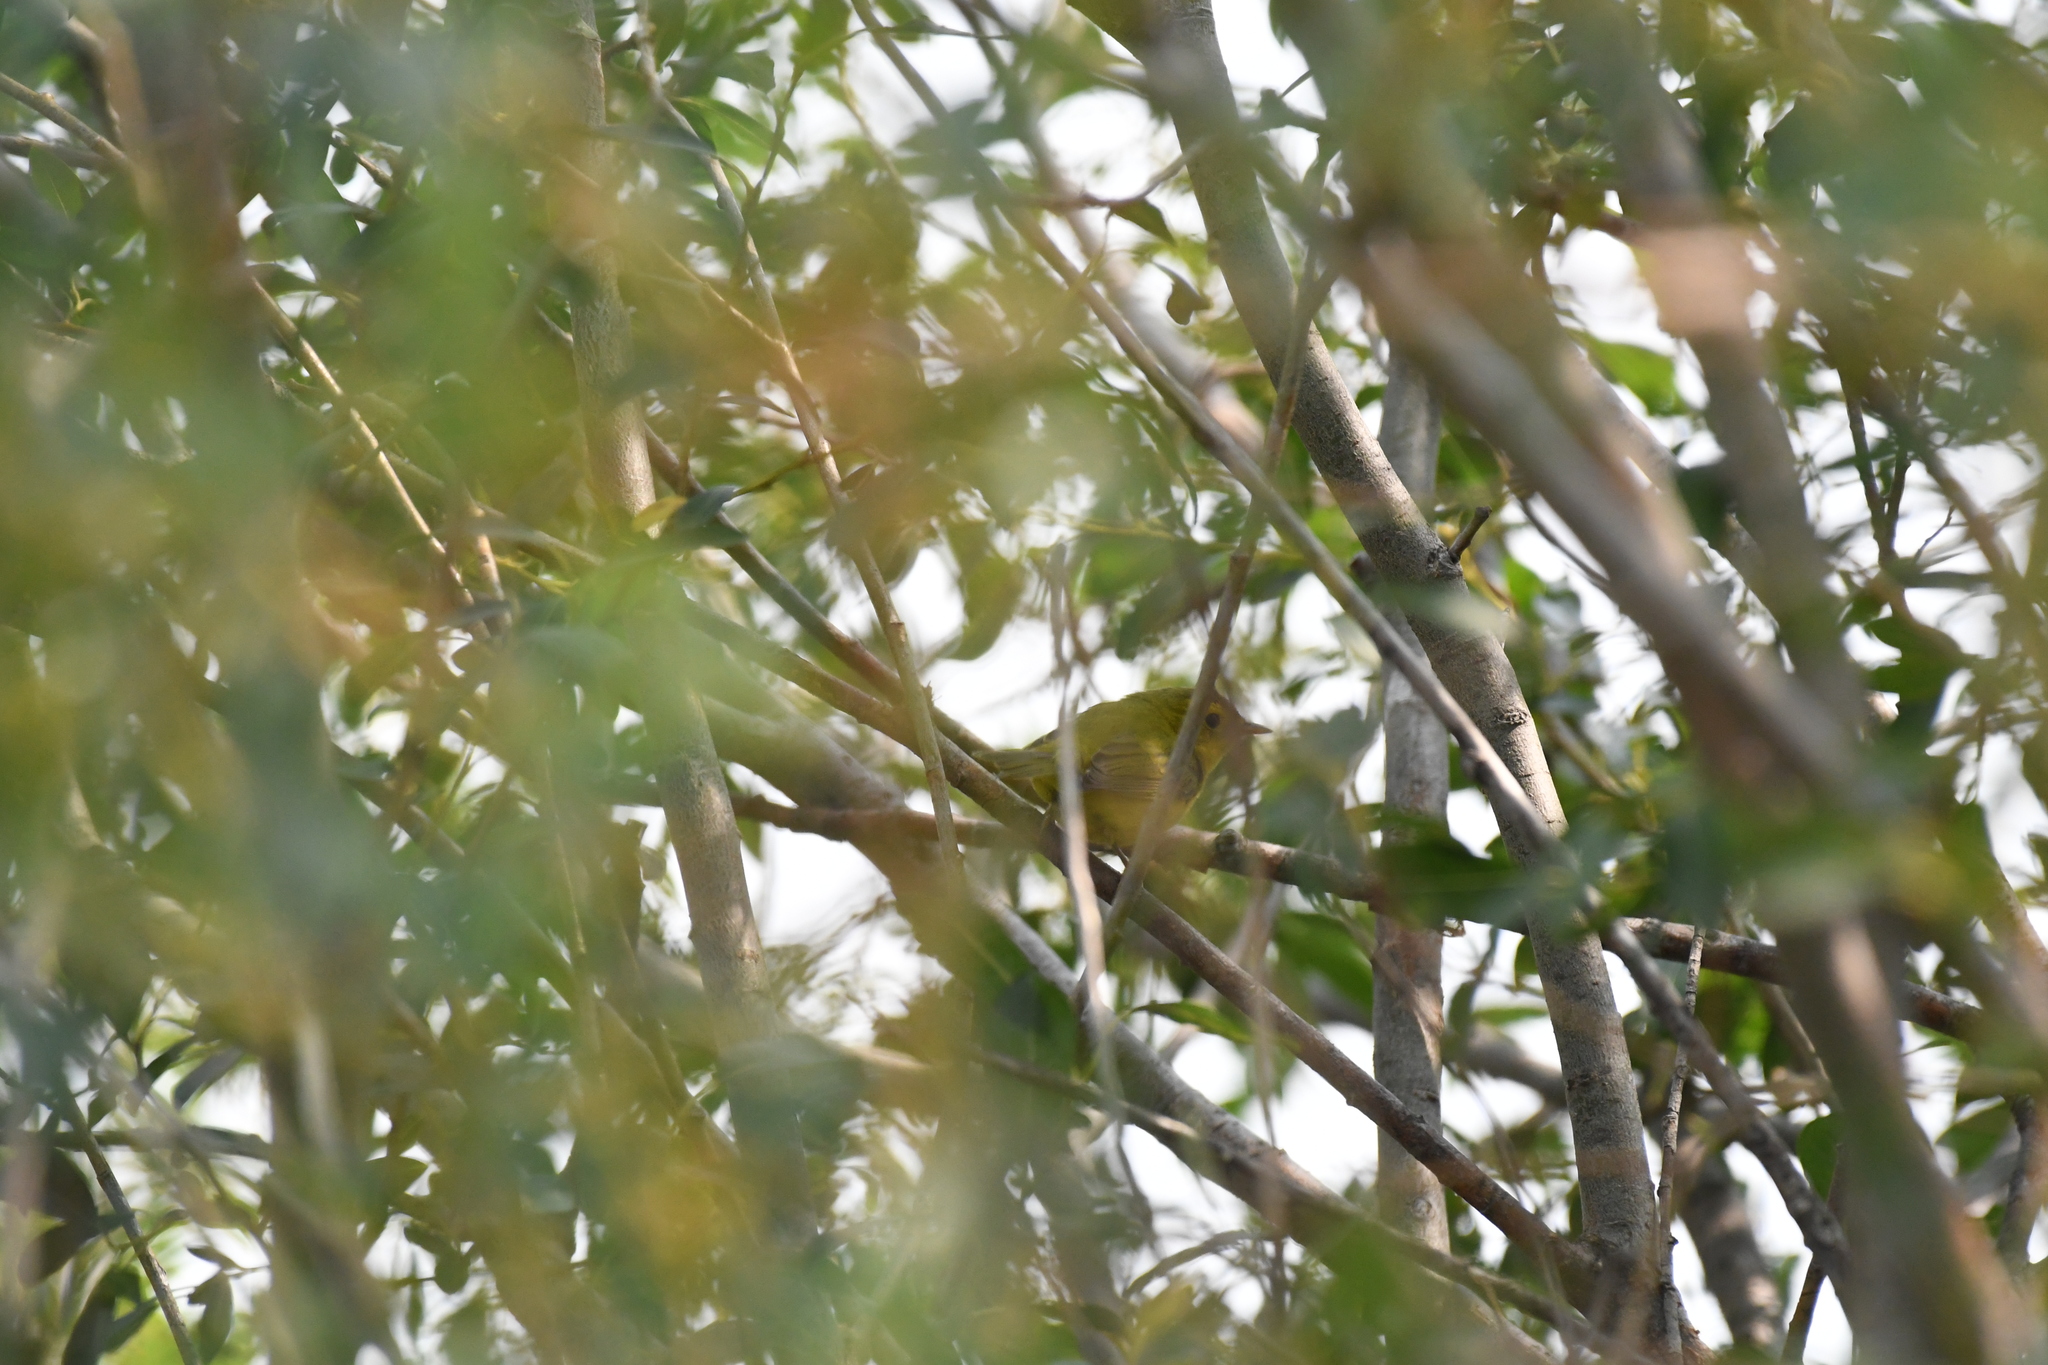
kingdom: Animalia
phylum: Chordata
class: Aves
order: Passeriformes
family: Parulidae
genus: Cardellina
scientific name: Cardellina pusilla
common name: Wilson's warbler
